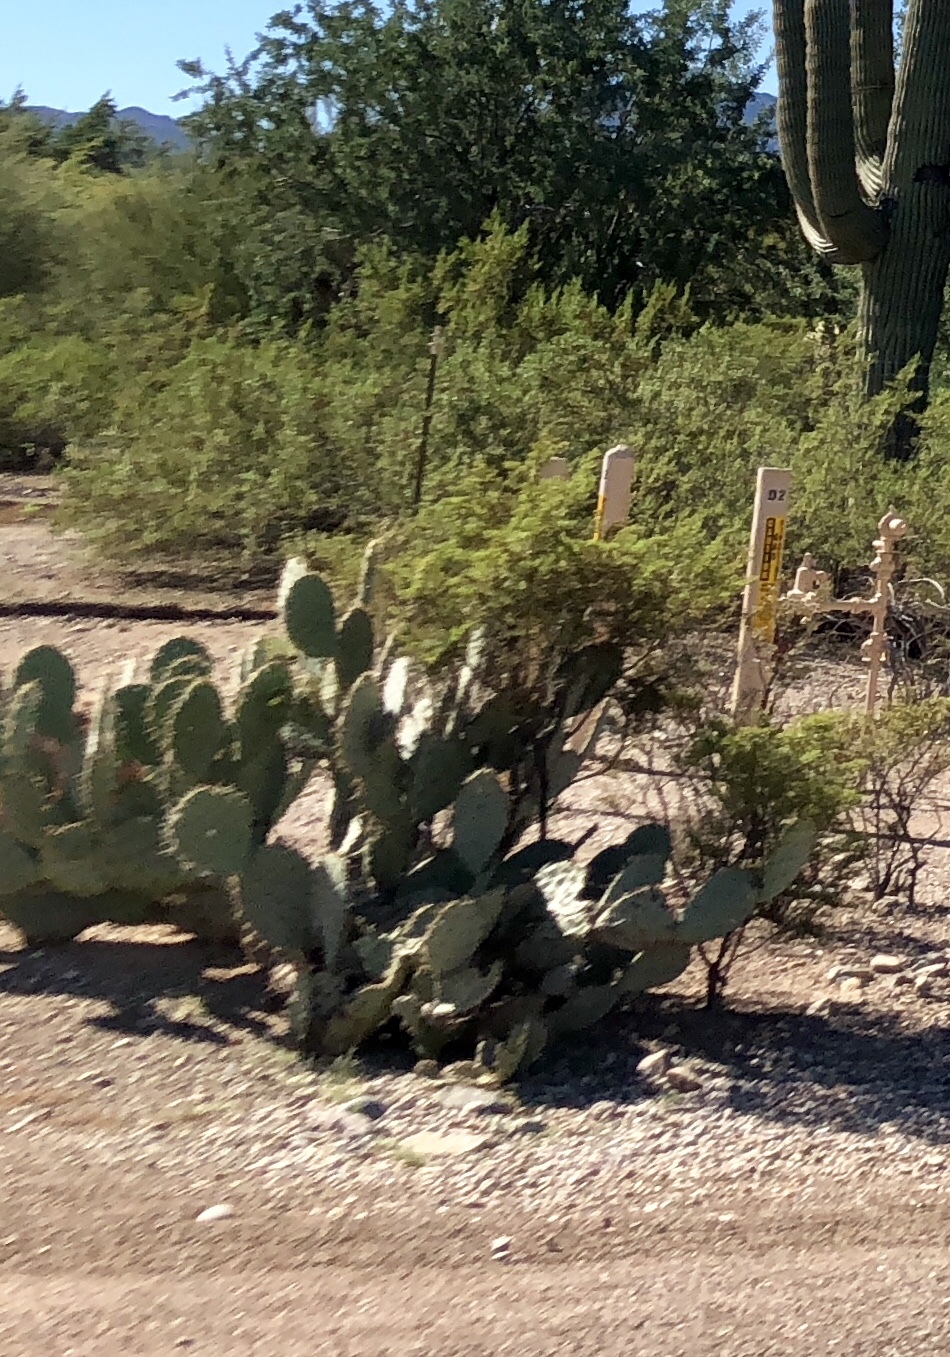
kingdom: Plantae
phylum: Tracheophyta
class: Magnoliopsida
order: Caryophyllales
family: Cactaceae
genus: Opuntia
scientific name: Opuntia engelmannii
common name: Cactus-apple
